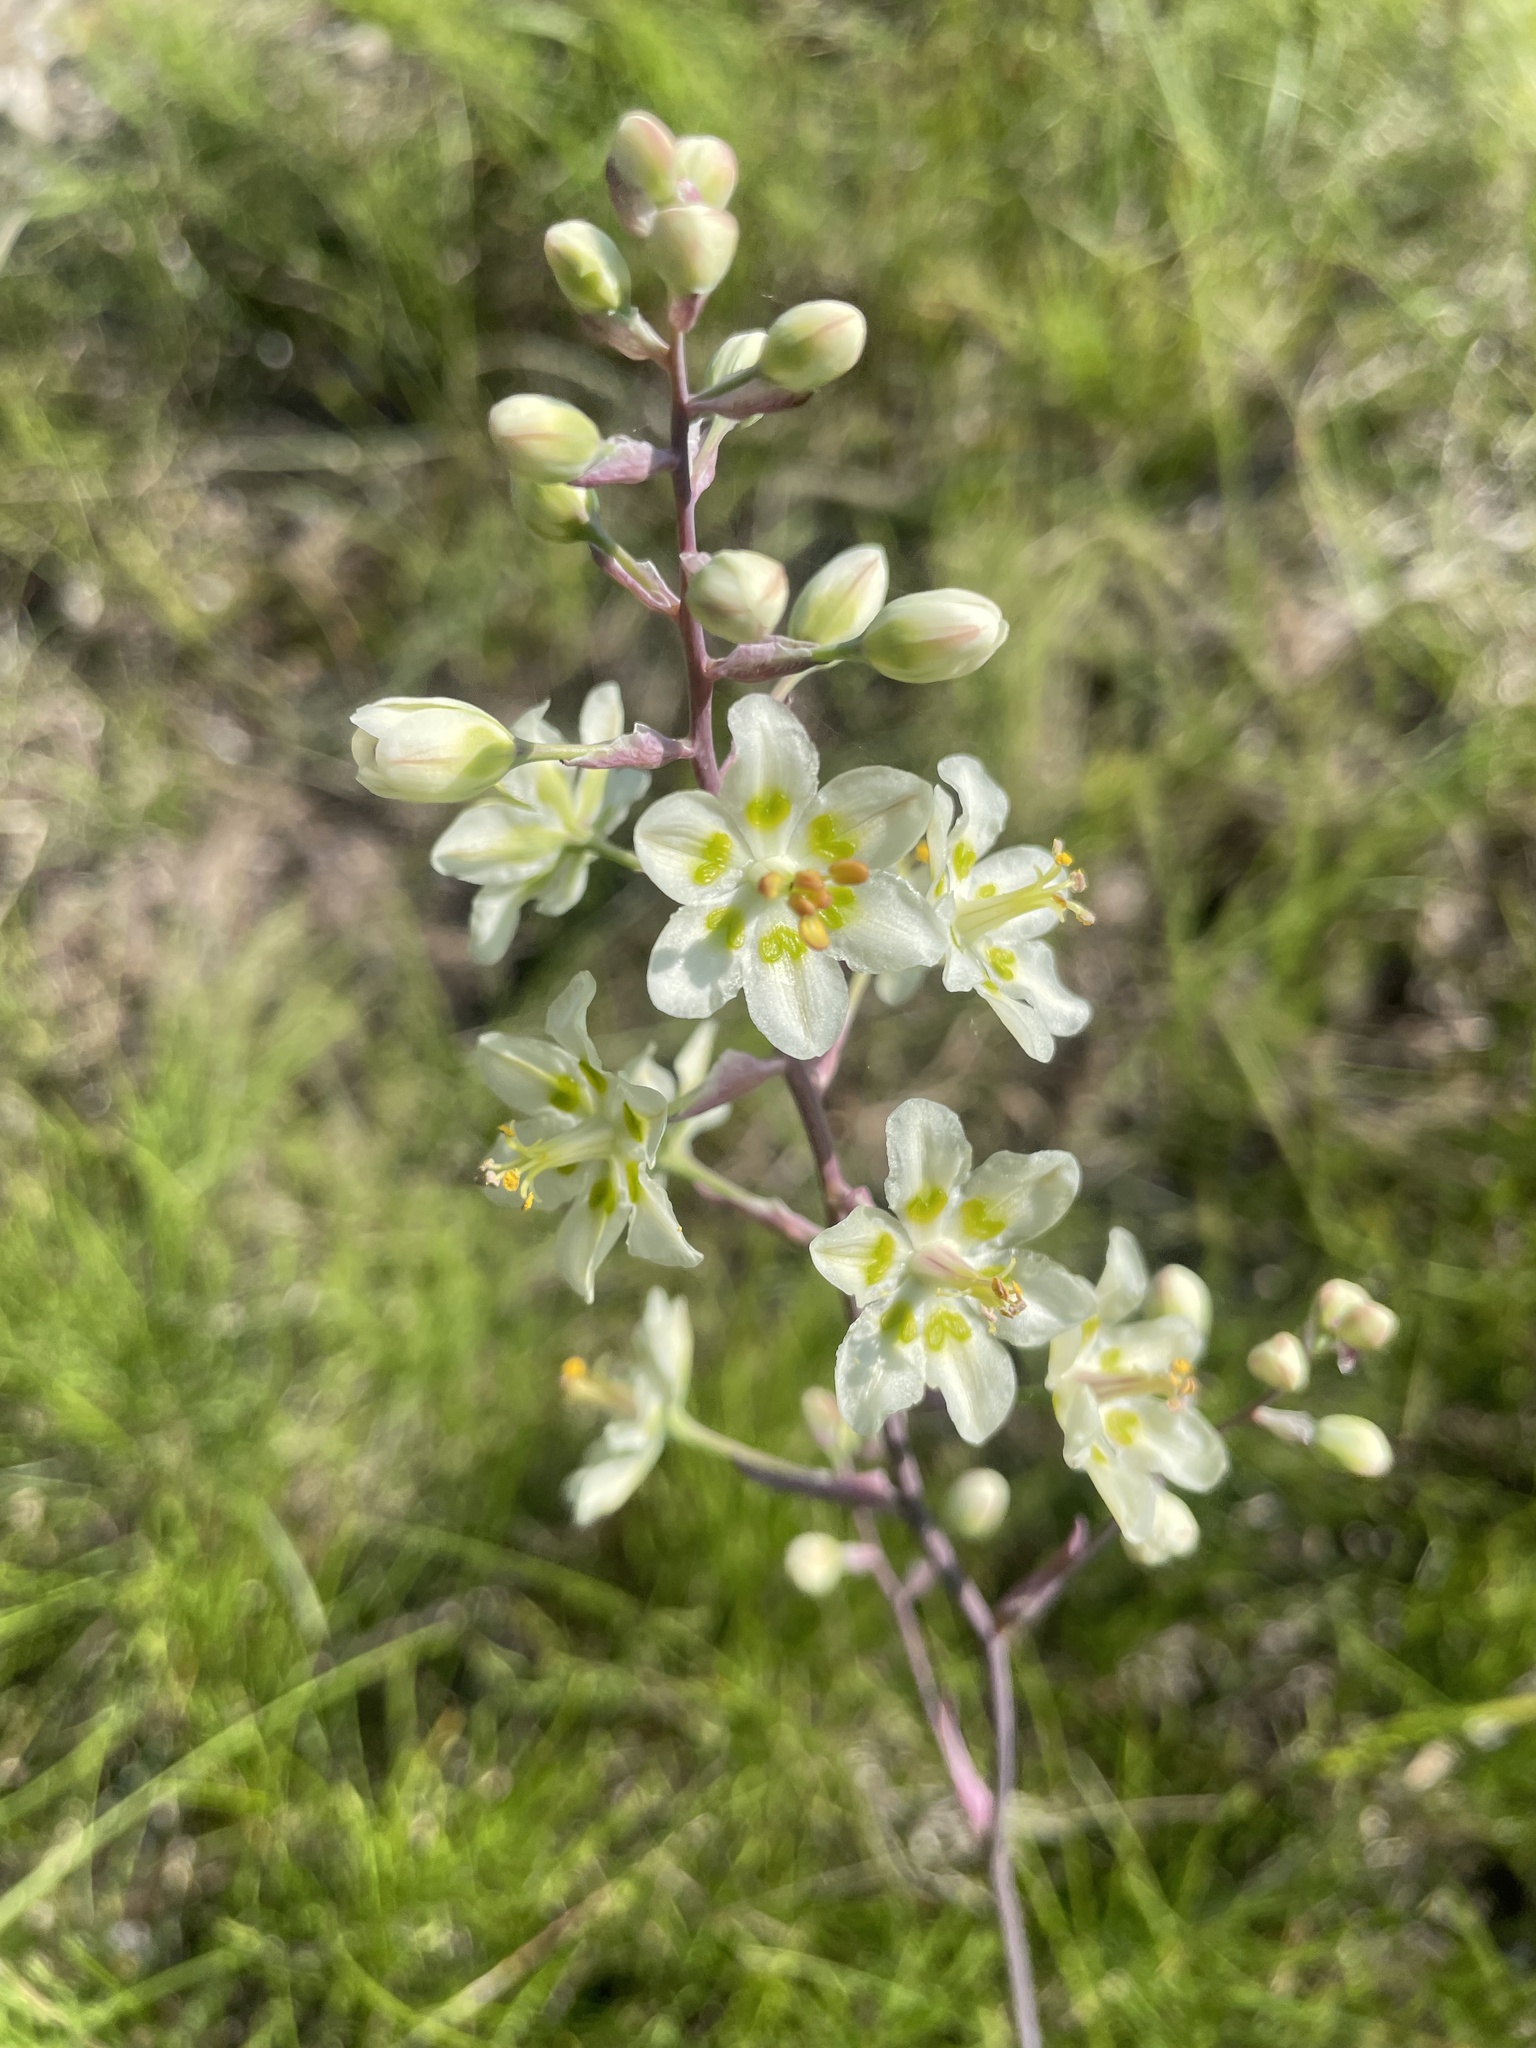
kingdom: Plantae
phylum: Tracheophyta
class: Liliopsida
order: Liliales
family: Melanthiaceae
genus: Anticlea
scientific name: Anticlea elegans
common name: Mountain death camas
